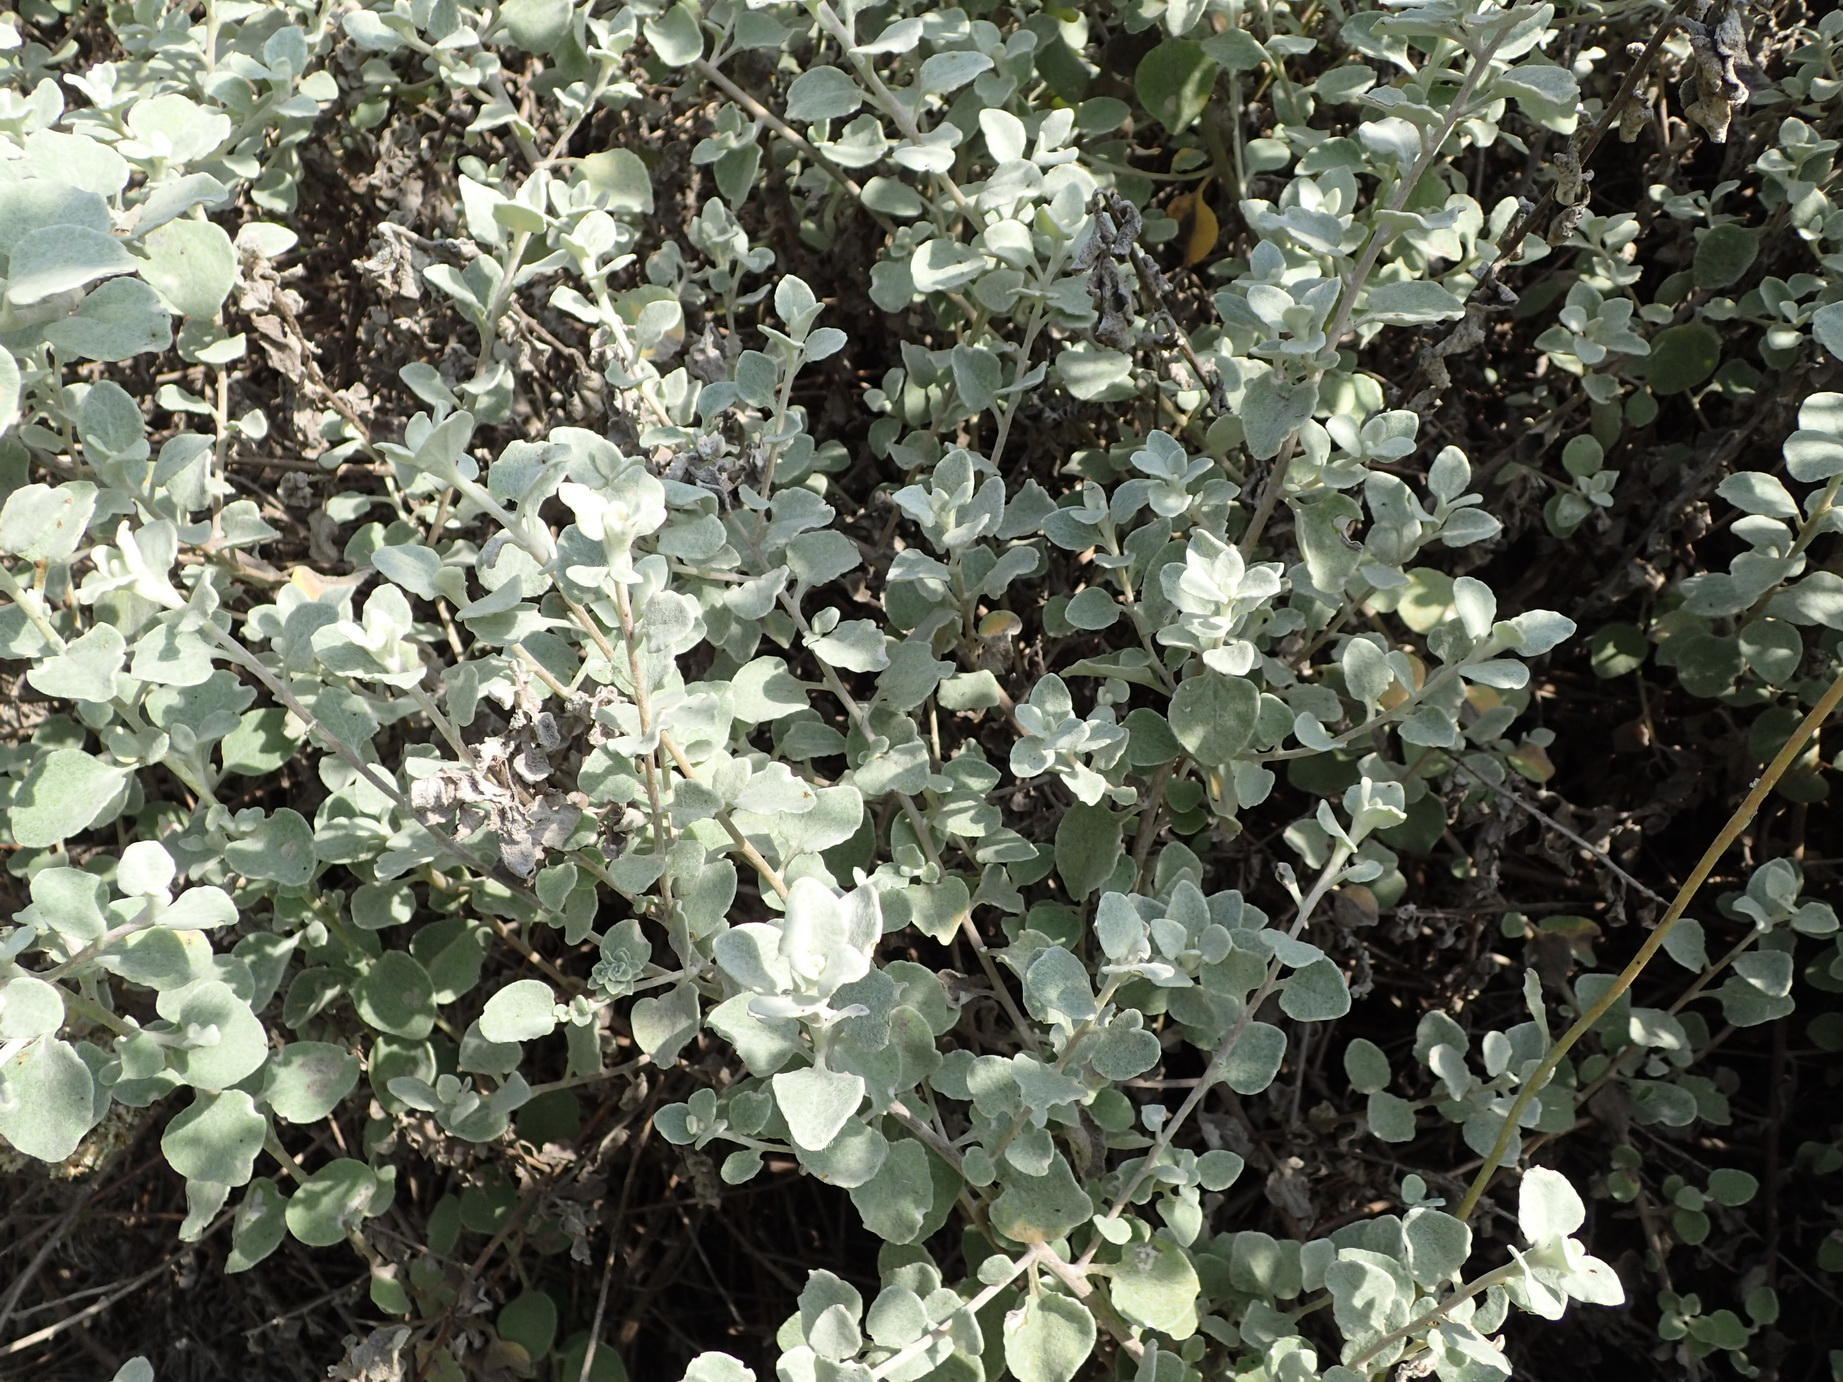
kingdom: Plantae
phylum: Tracheophyta
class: Magnoliopsida
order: Asterales
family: Asteraceae
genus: Helichrysum
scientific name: Helichrysum petiolare
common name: Licorice-plant
